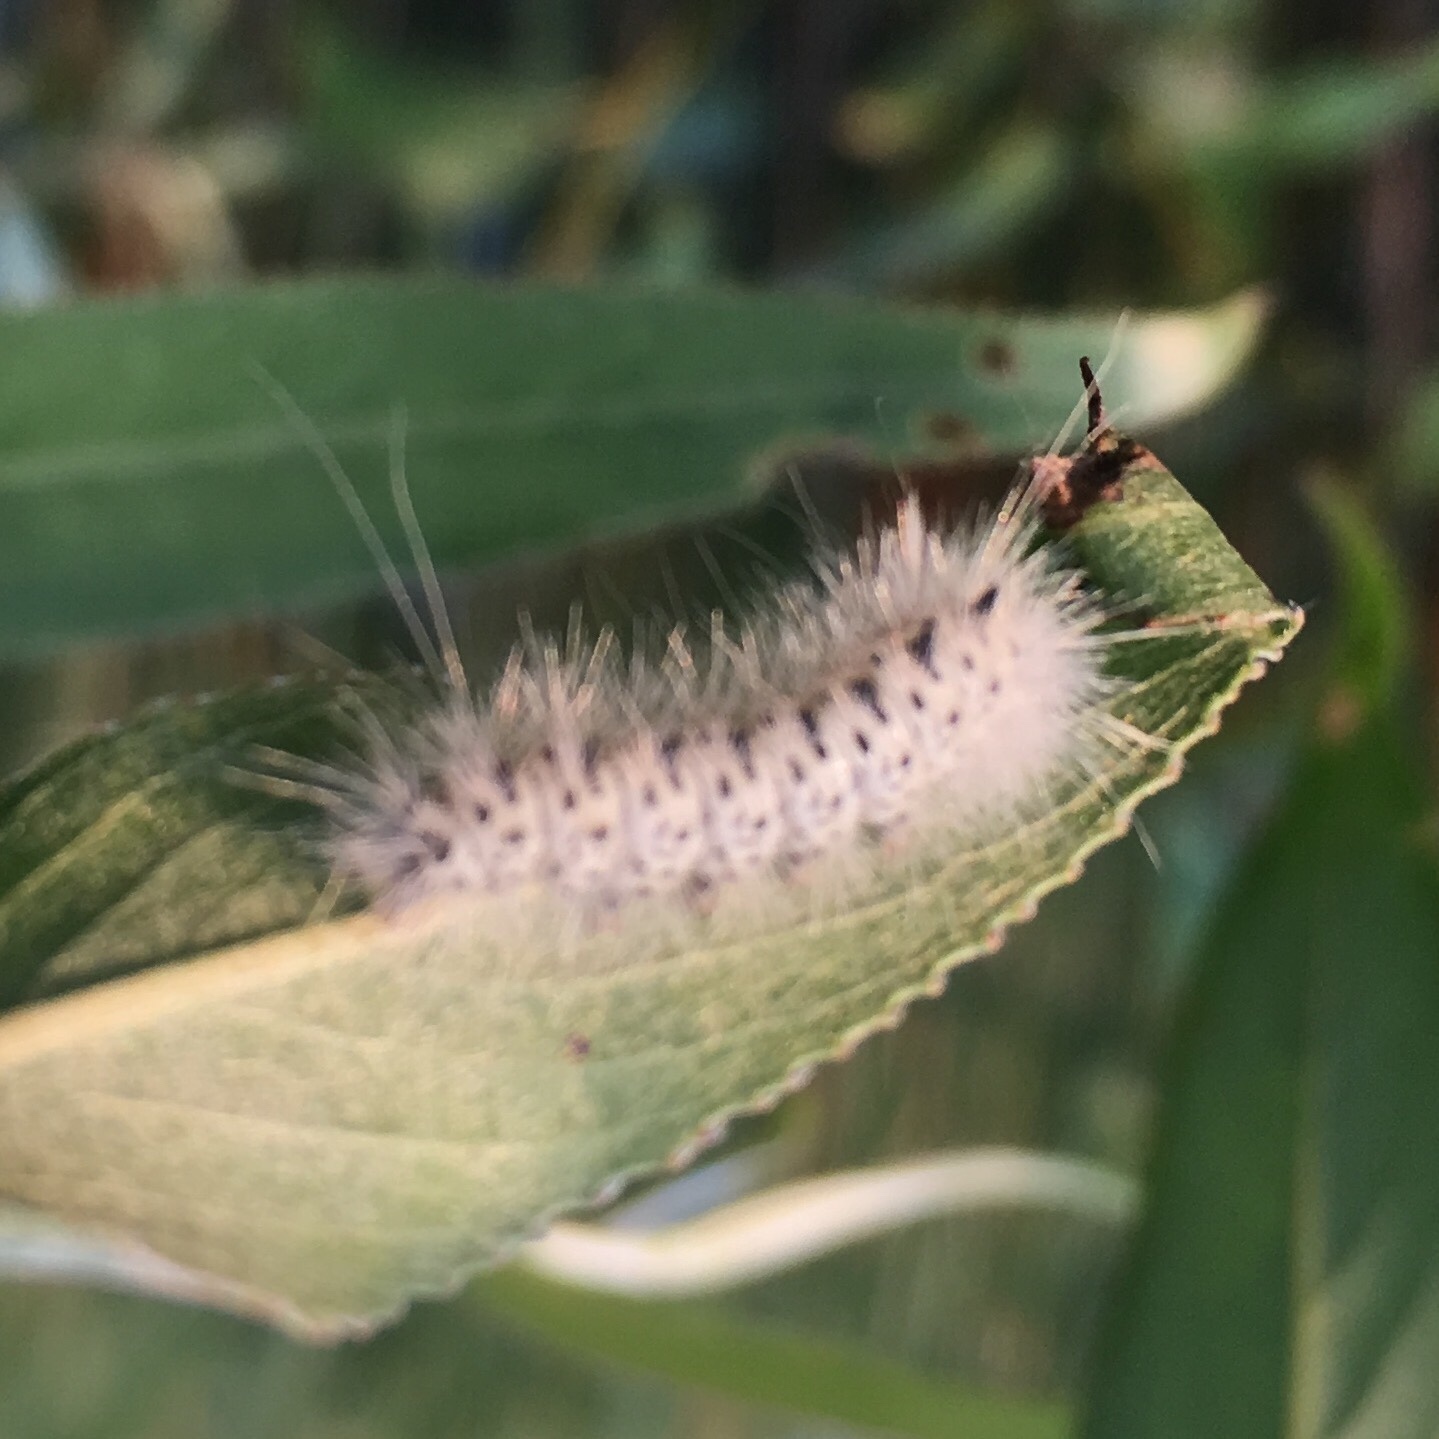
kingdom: Animalia
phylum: Arthropoda
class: Insecta
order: Lepidoptera
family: Erebidae
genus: Lophocampa
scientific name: Lophocampa caryae
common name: Hickory tussock moth
